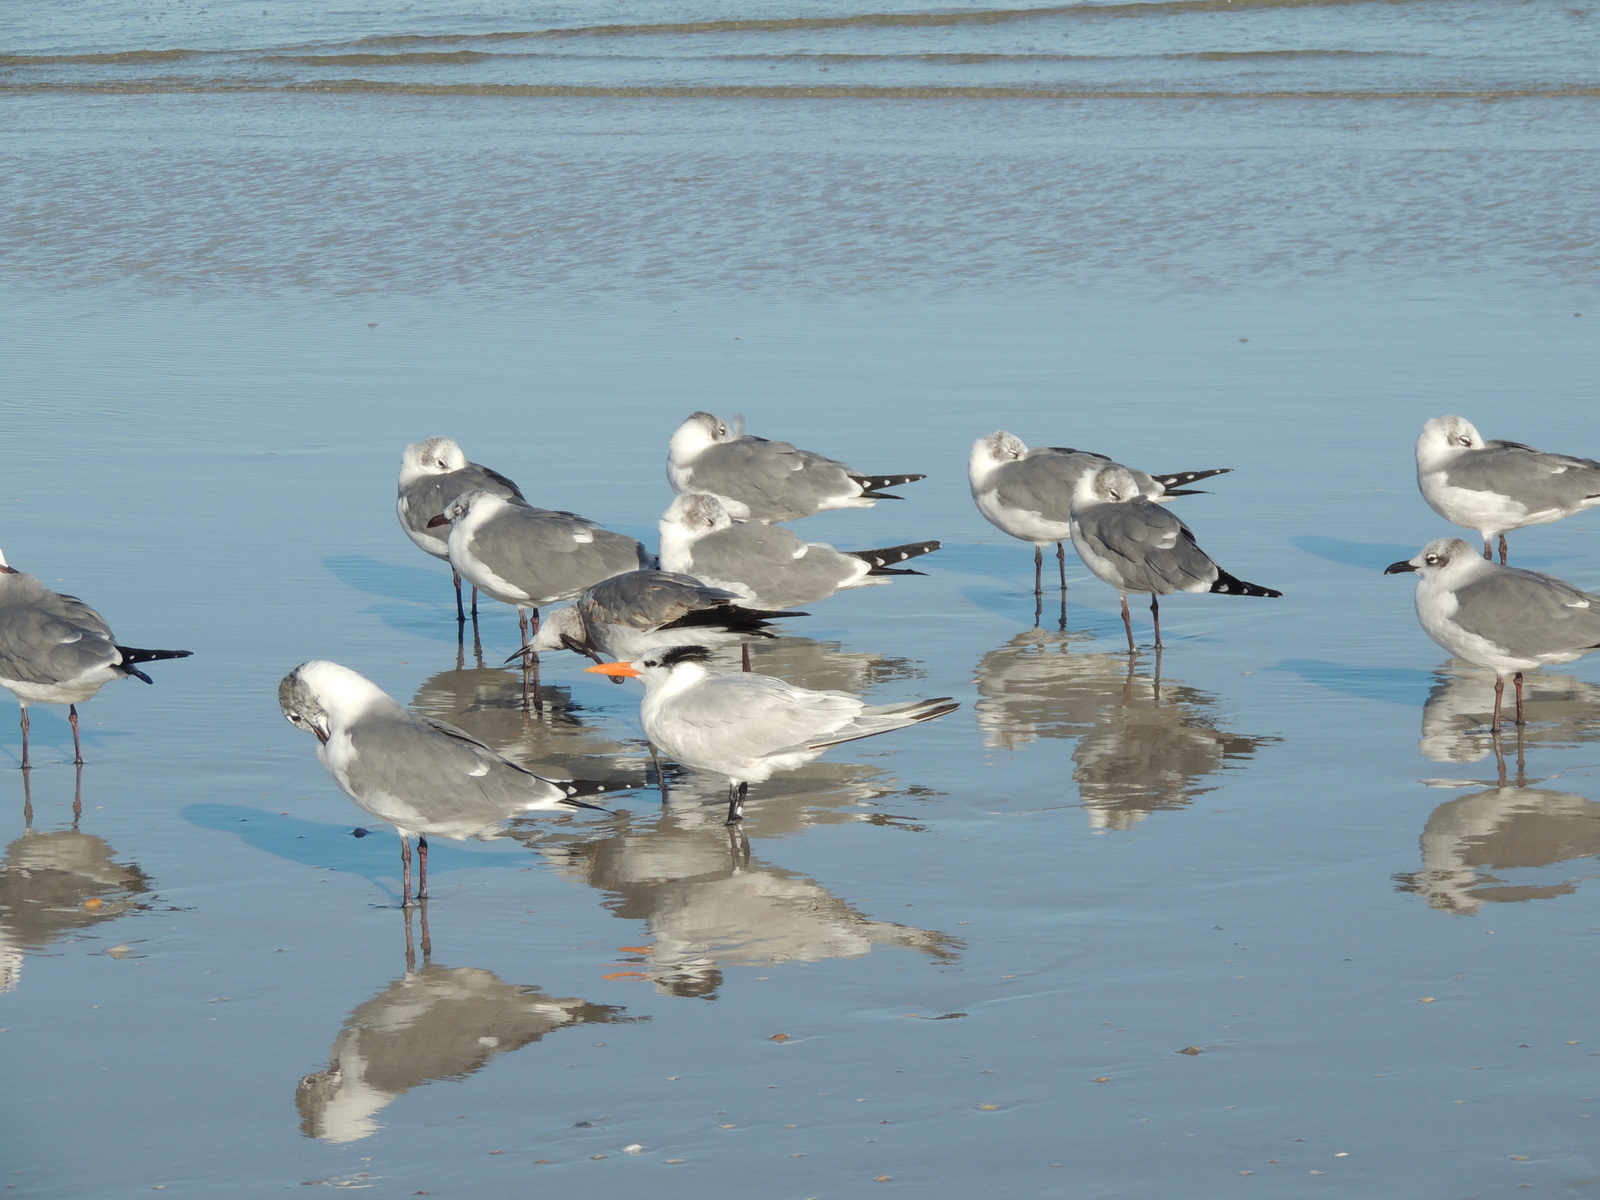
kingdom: Animalia
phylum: Chordata
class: Aves
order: Charadriiformes
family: Laridae
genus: Thalasseus
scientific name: Thalasseus maximus
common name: Royal tern
